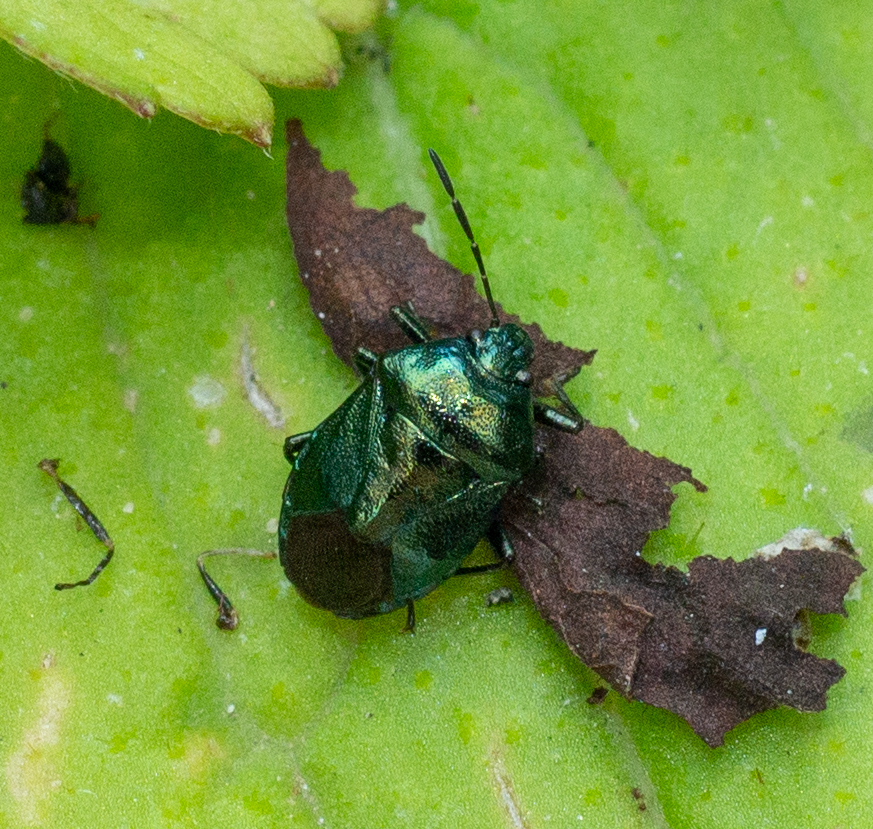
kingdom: Animalia
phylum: Arthropoda
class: Insecta
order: Hemiptera
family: Pentatomidae
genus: Zicrona
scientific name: Zicrona caerulea
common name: Blue shieldbug
